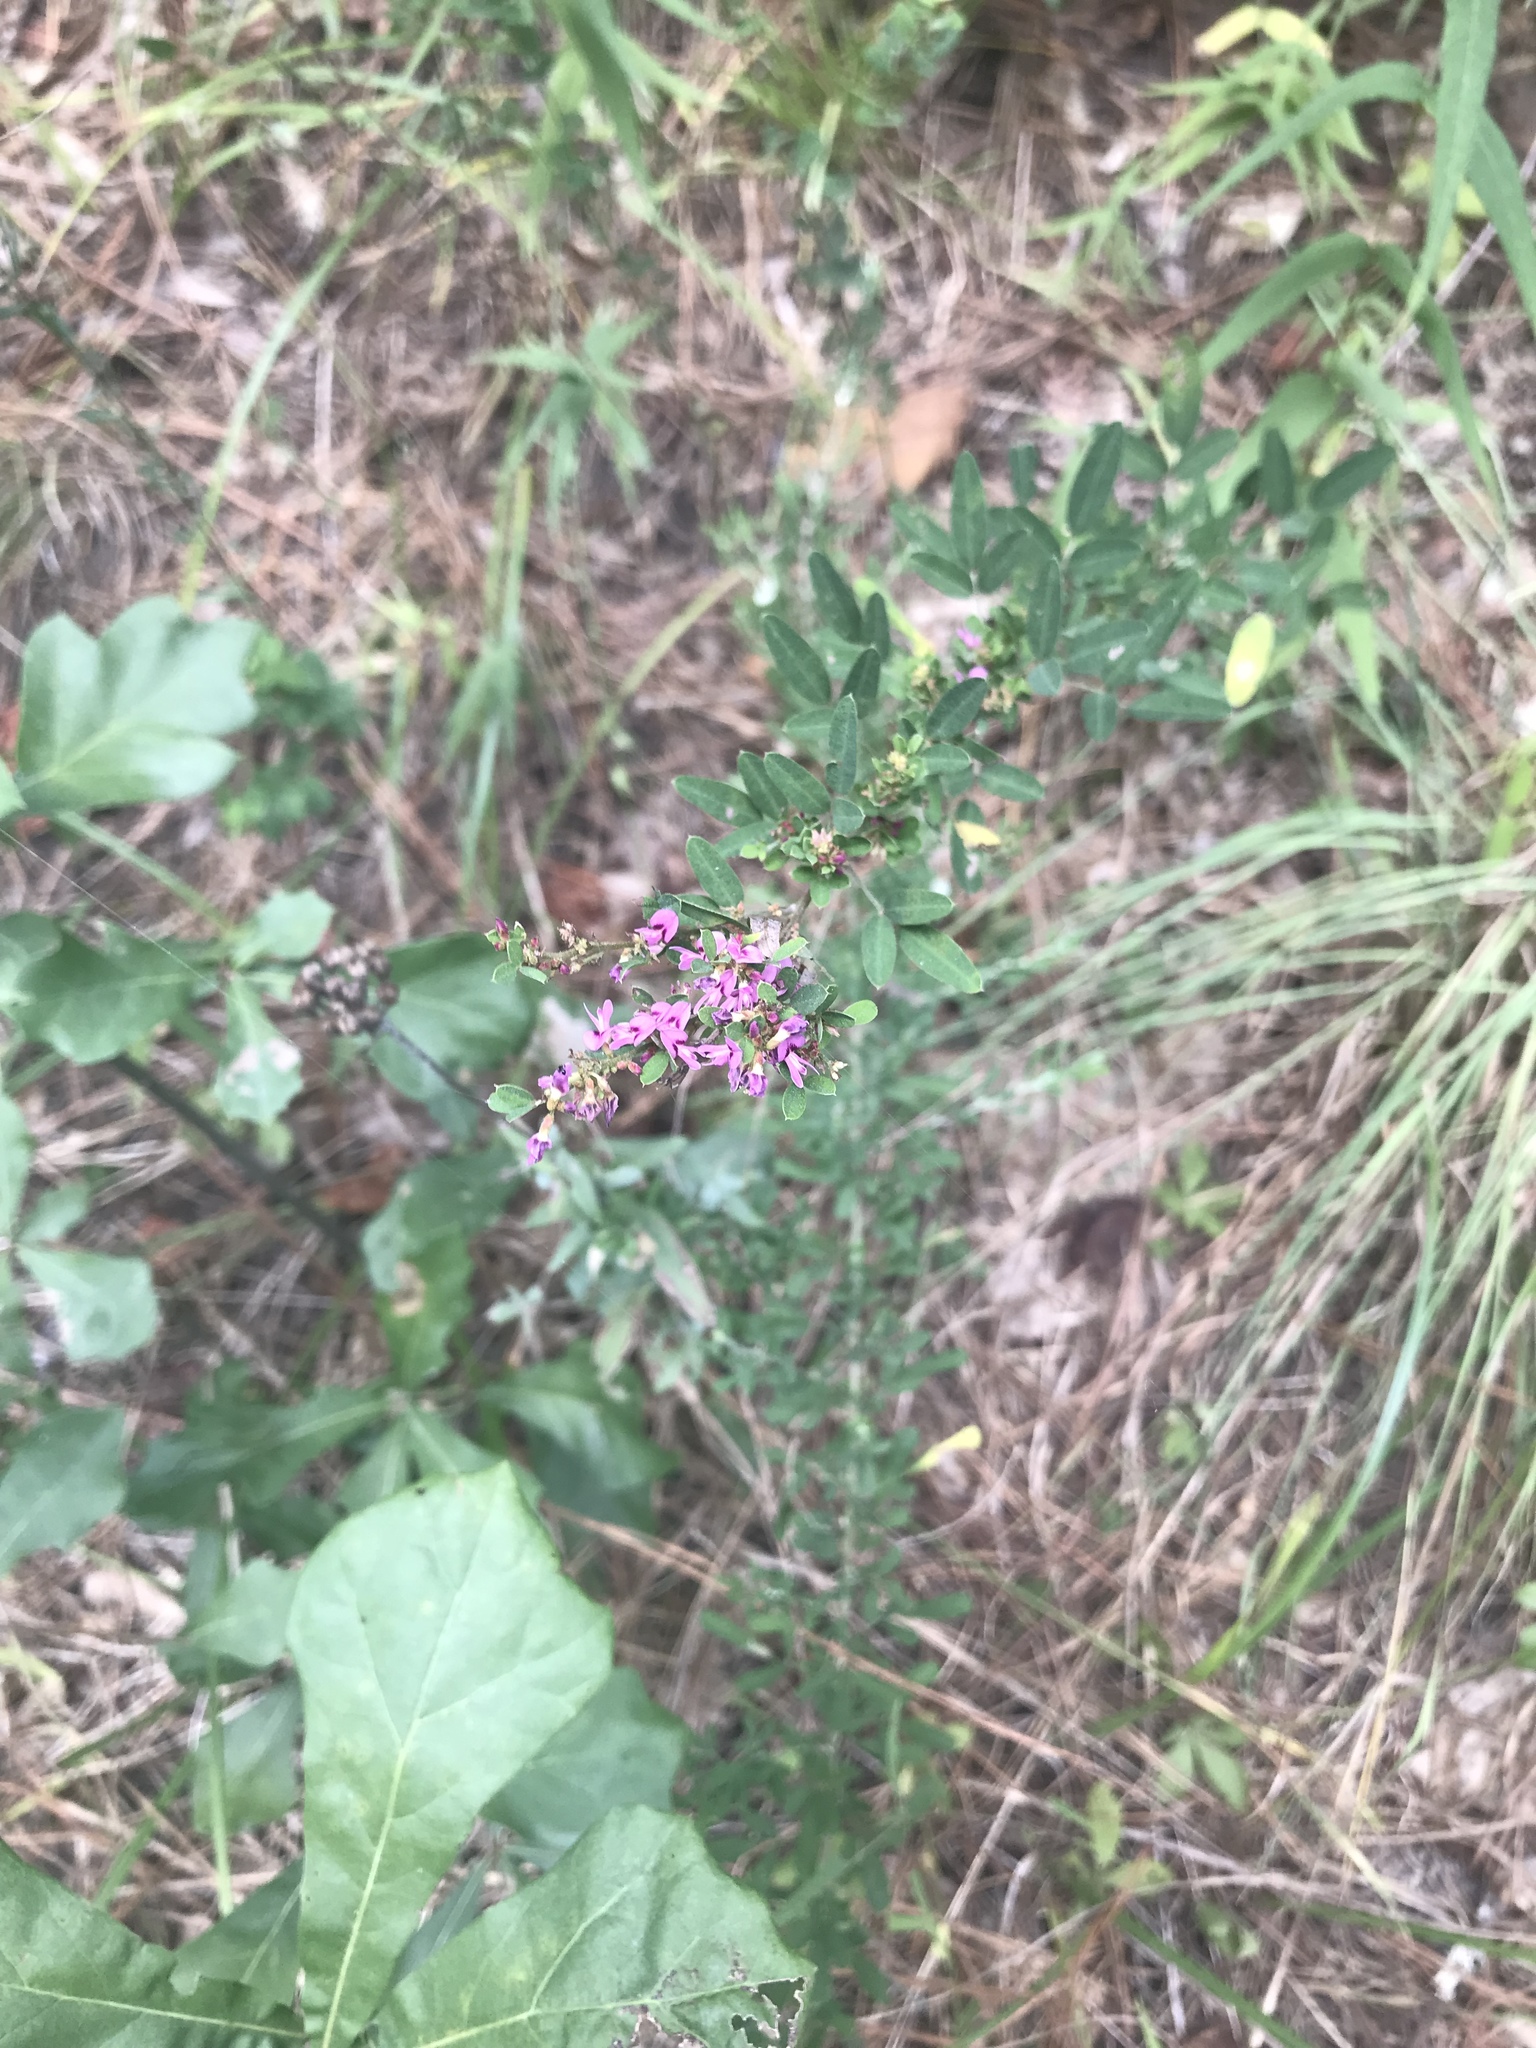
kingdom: Plantae
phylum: Tracheophyta
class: Magnoliopsida
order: Fabales
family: Fabaceae
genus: Lespedeza
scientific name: Lespedeza virginica
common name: Slender bush-clover
